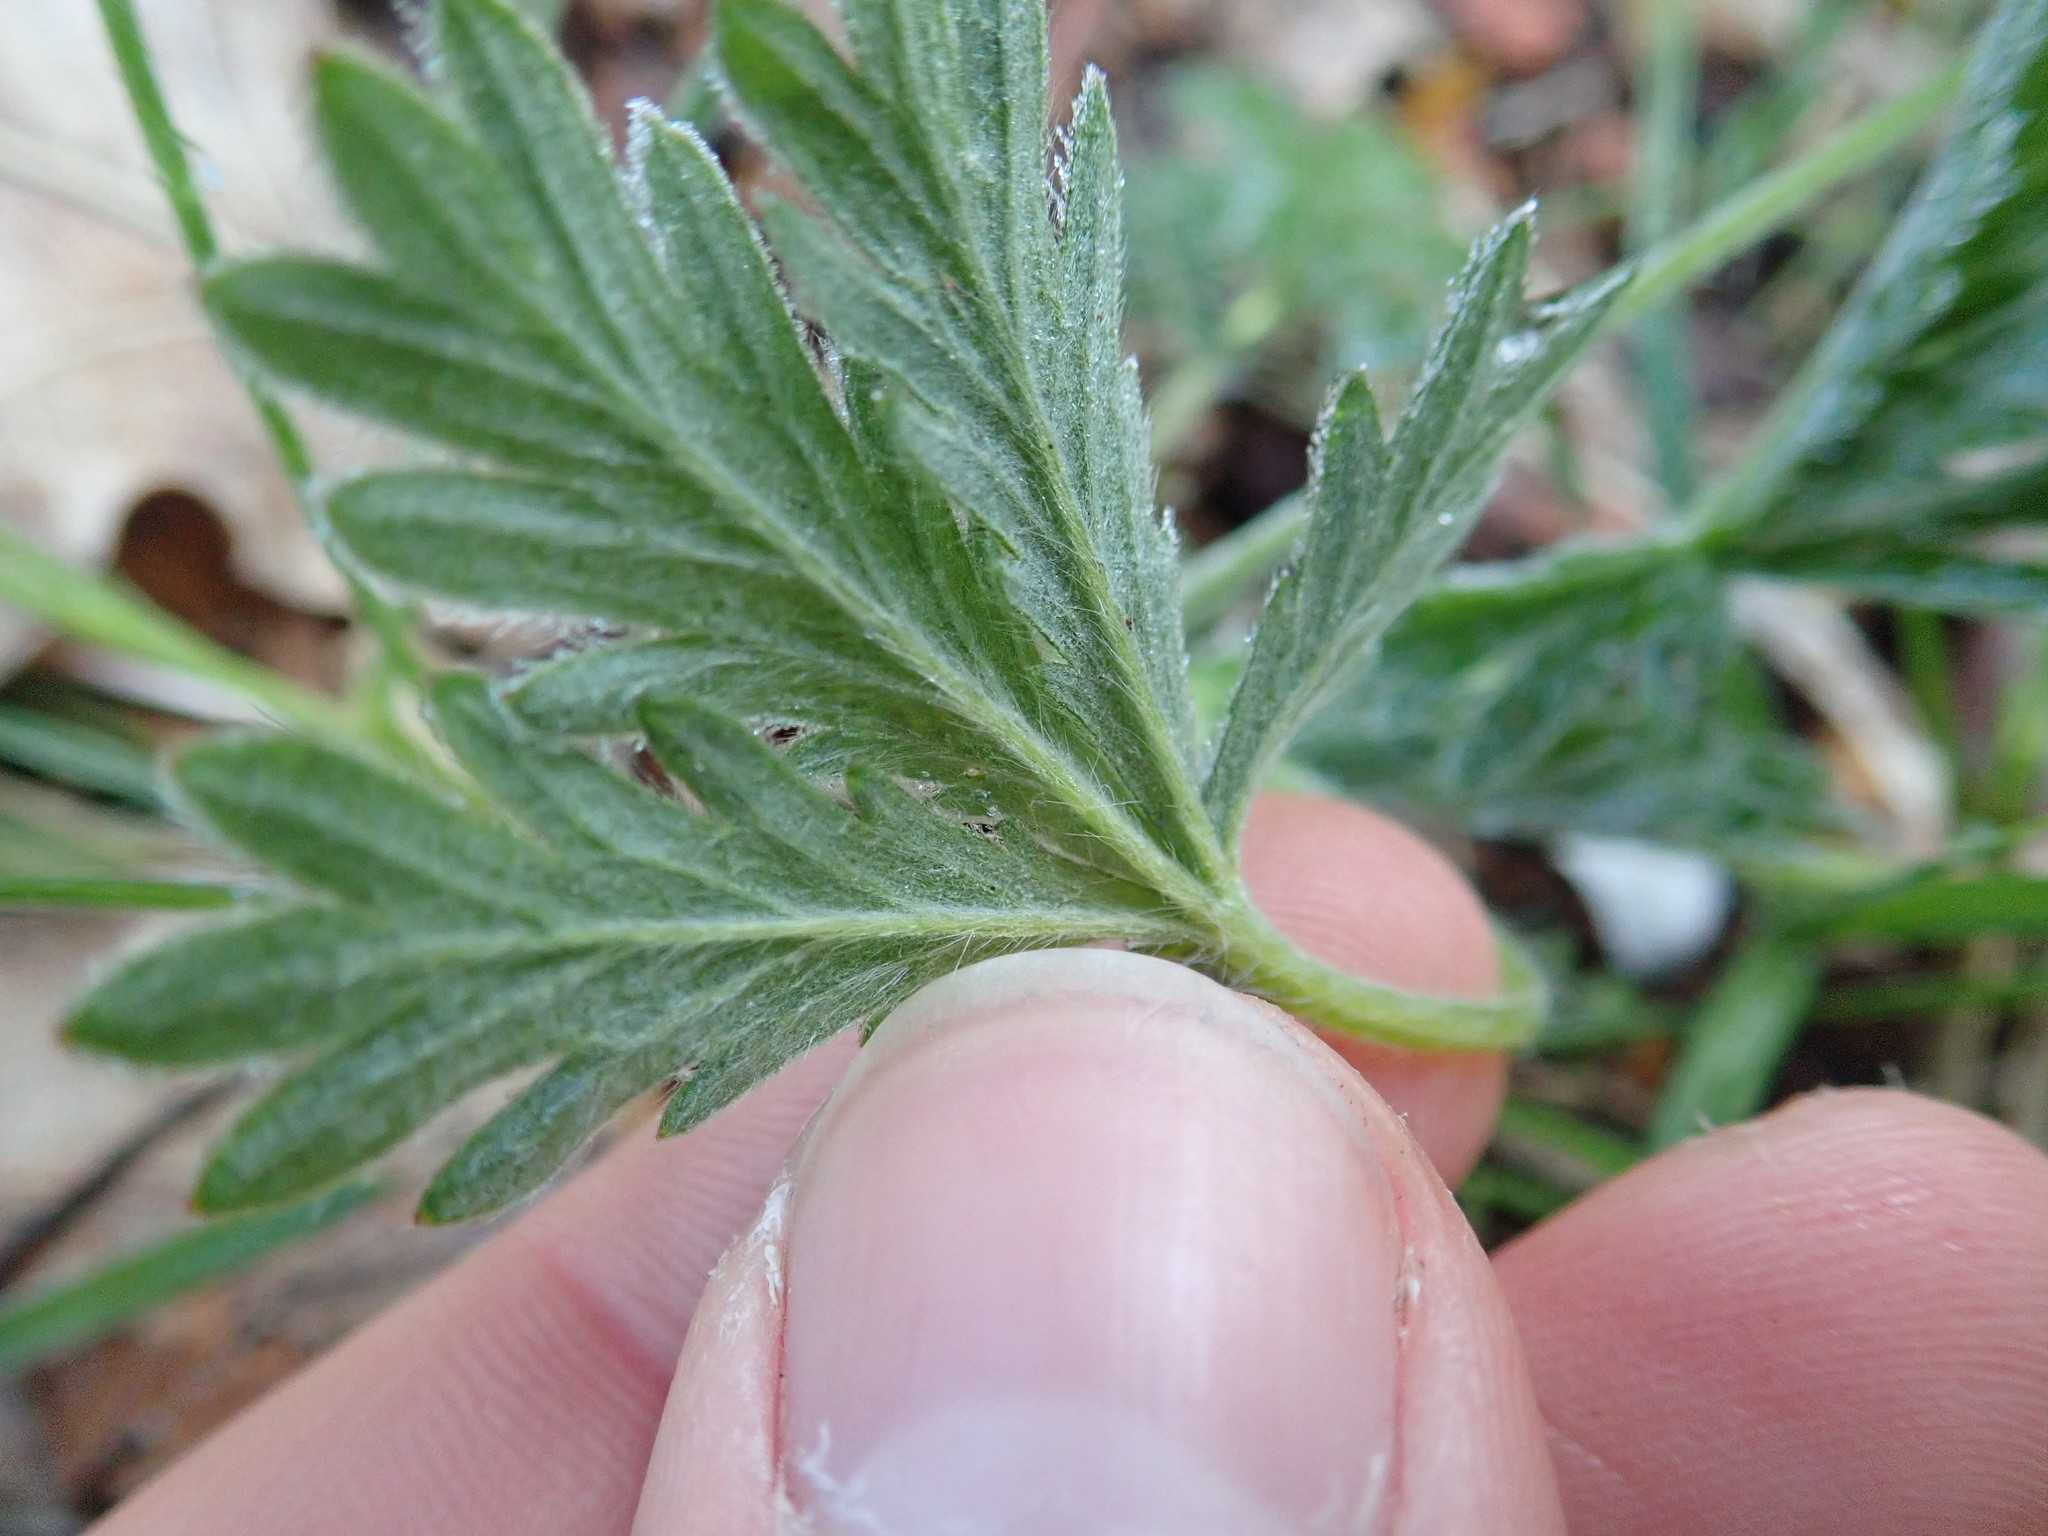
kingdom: Plantae
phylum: Tracheophyta
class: Magnoliopsida
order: Rosales
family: Rosaceae
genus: Potentilla
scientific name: Potentilla
